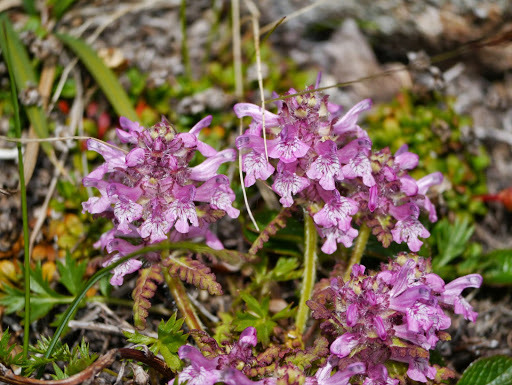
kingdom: Plantae
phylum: Tracheophyta
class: Magnoliopsida
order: Lamiales
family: Orobanchaceae
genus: Pedicularis
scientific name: Pedicularis verticillata
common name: Whorled lousewort
